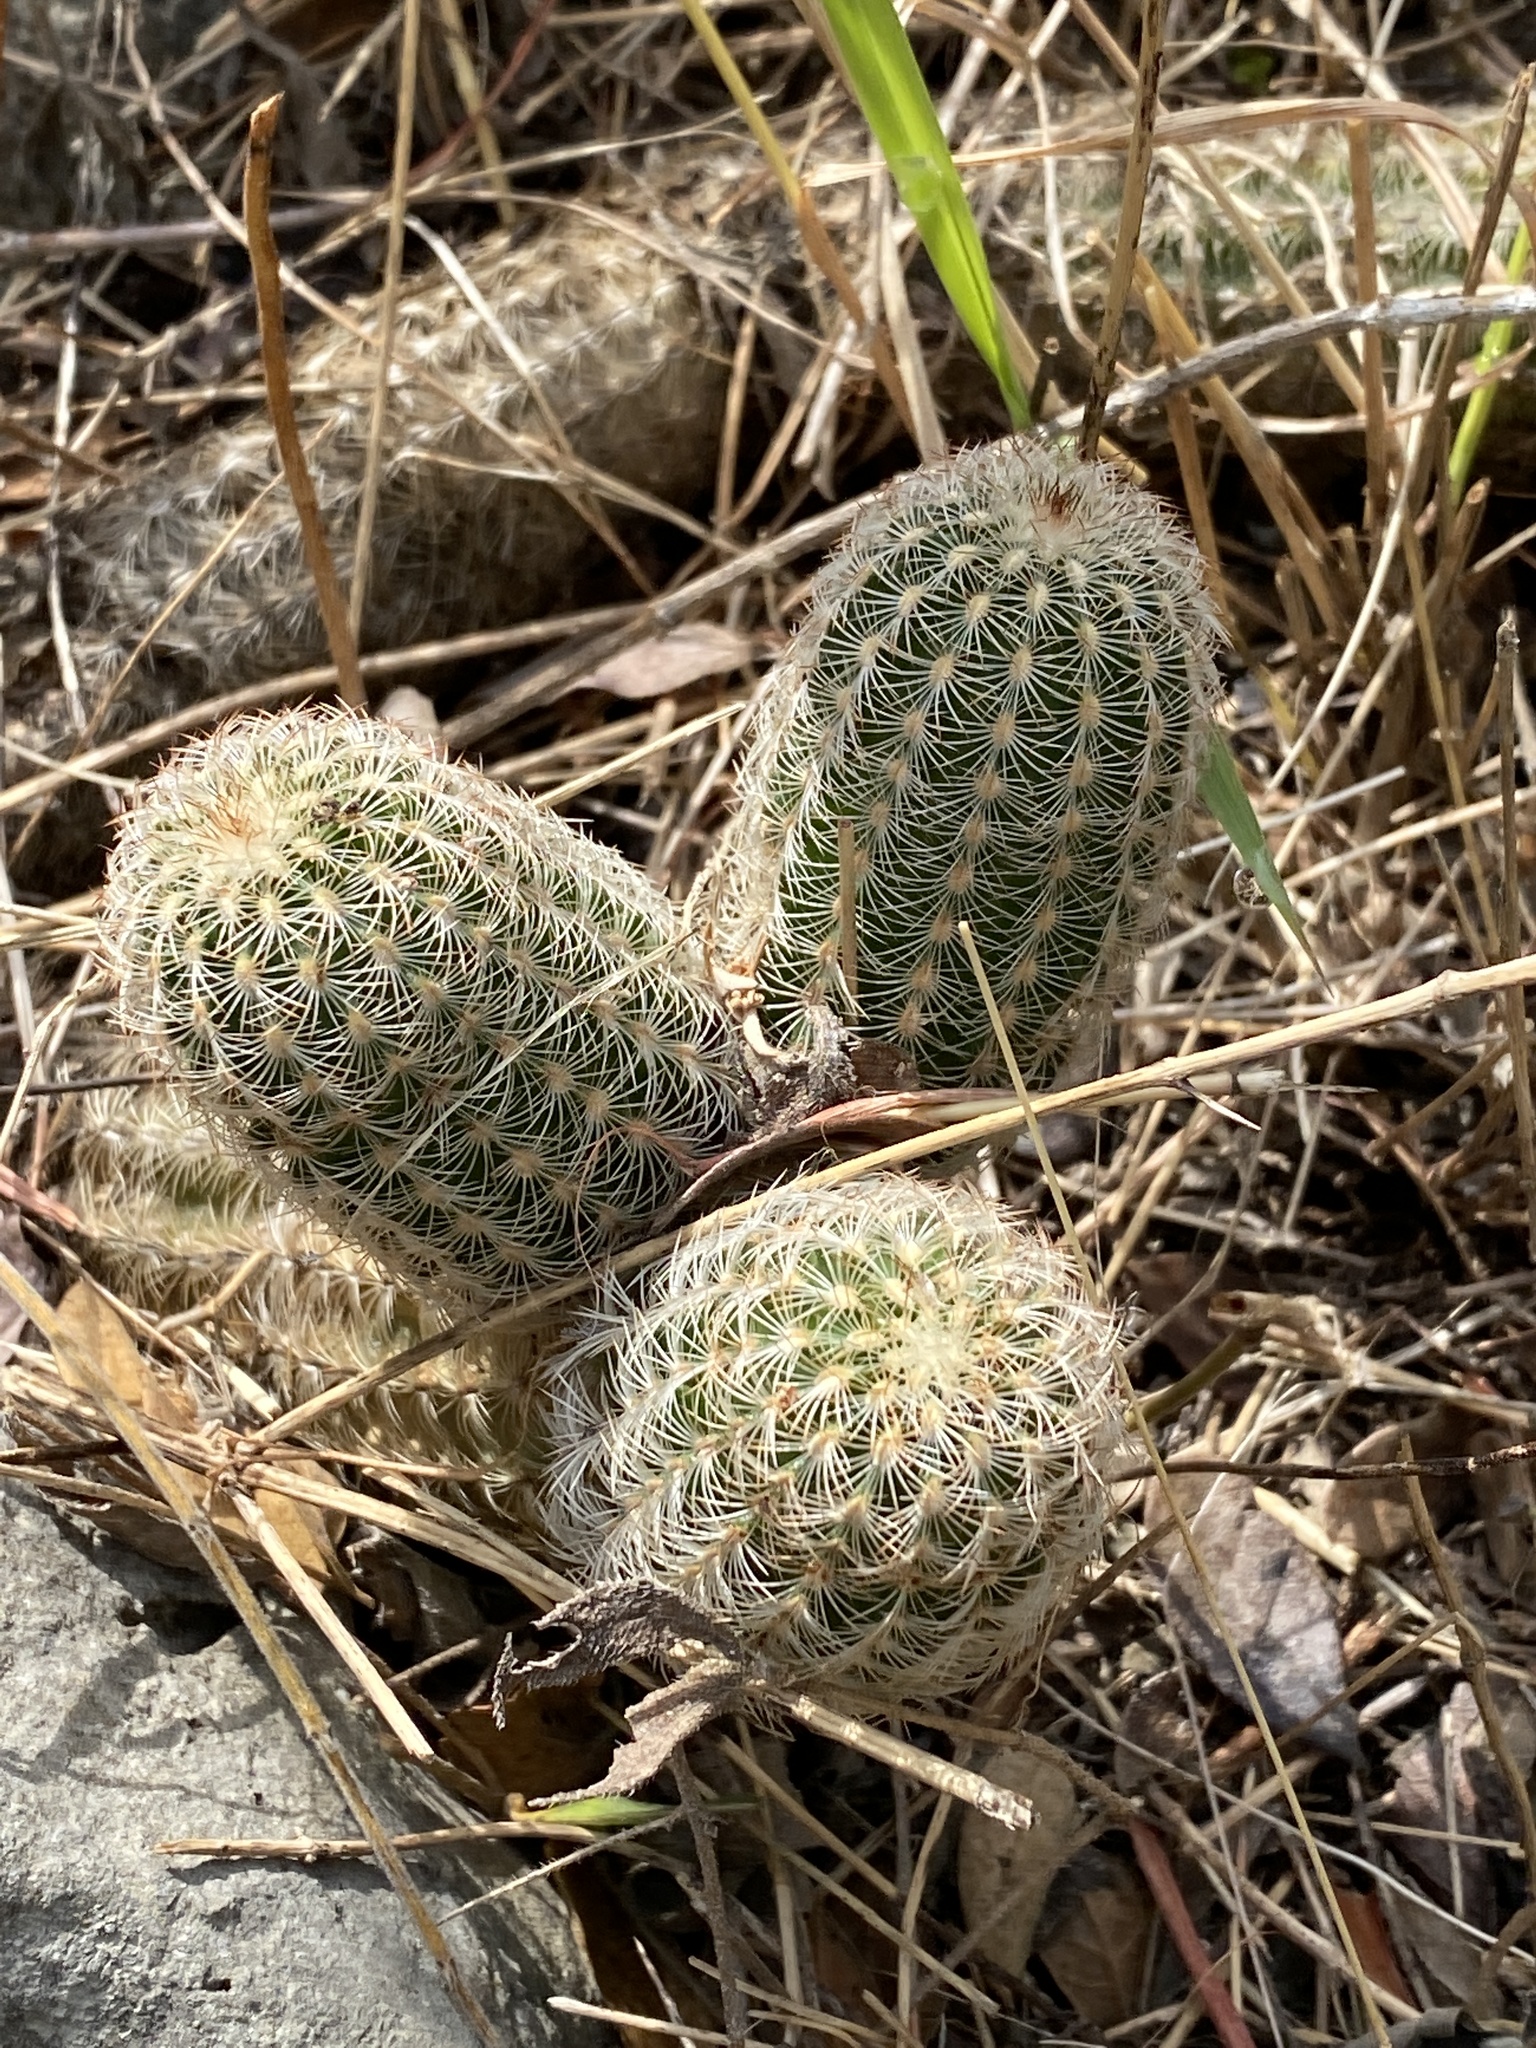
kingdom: Plantae
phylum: Tracheophyta
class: Magnoliopsida
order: Caryophyllales
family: Cactaceae
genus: Echinocereus
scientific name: Echinocereus reichenbachii
